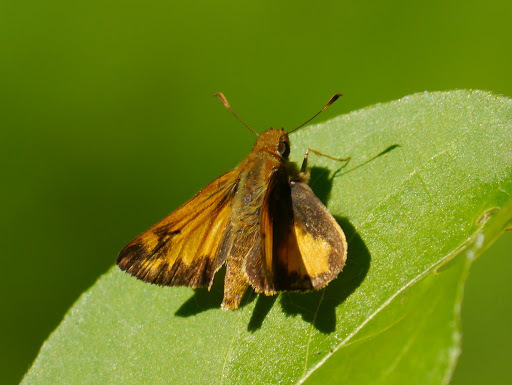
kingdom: Animalia
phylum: Arthropoda
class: Insecta
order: Lepidoptera
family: Hesperiidae
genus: Lon
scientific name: Lon zabulon
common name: Zabulon skipper
